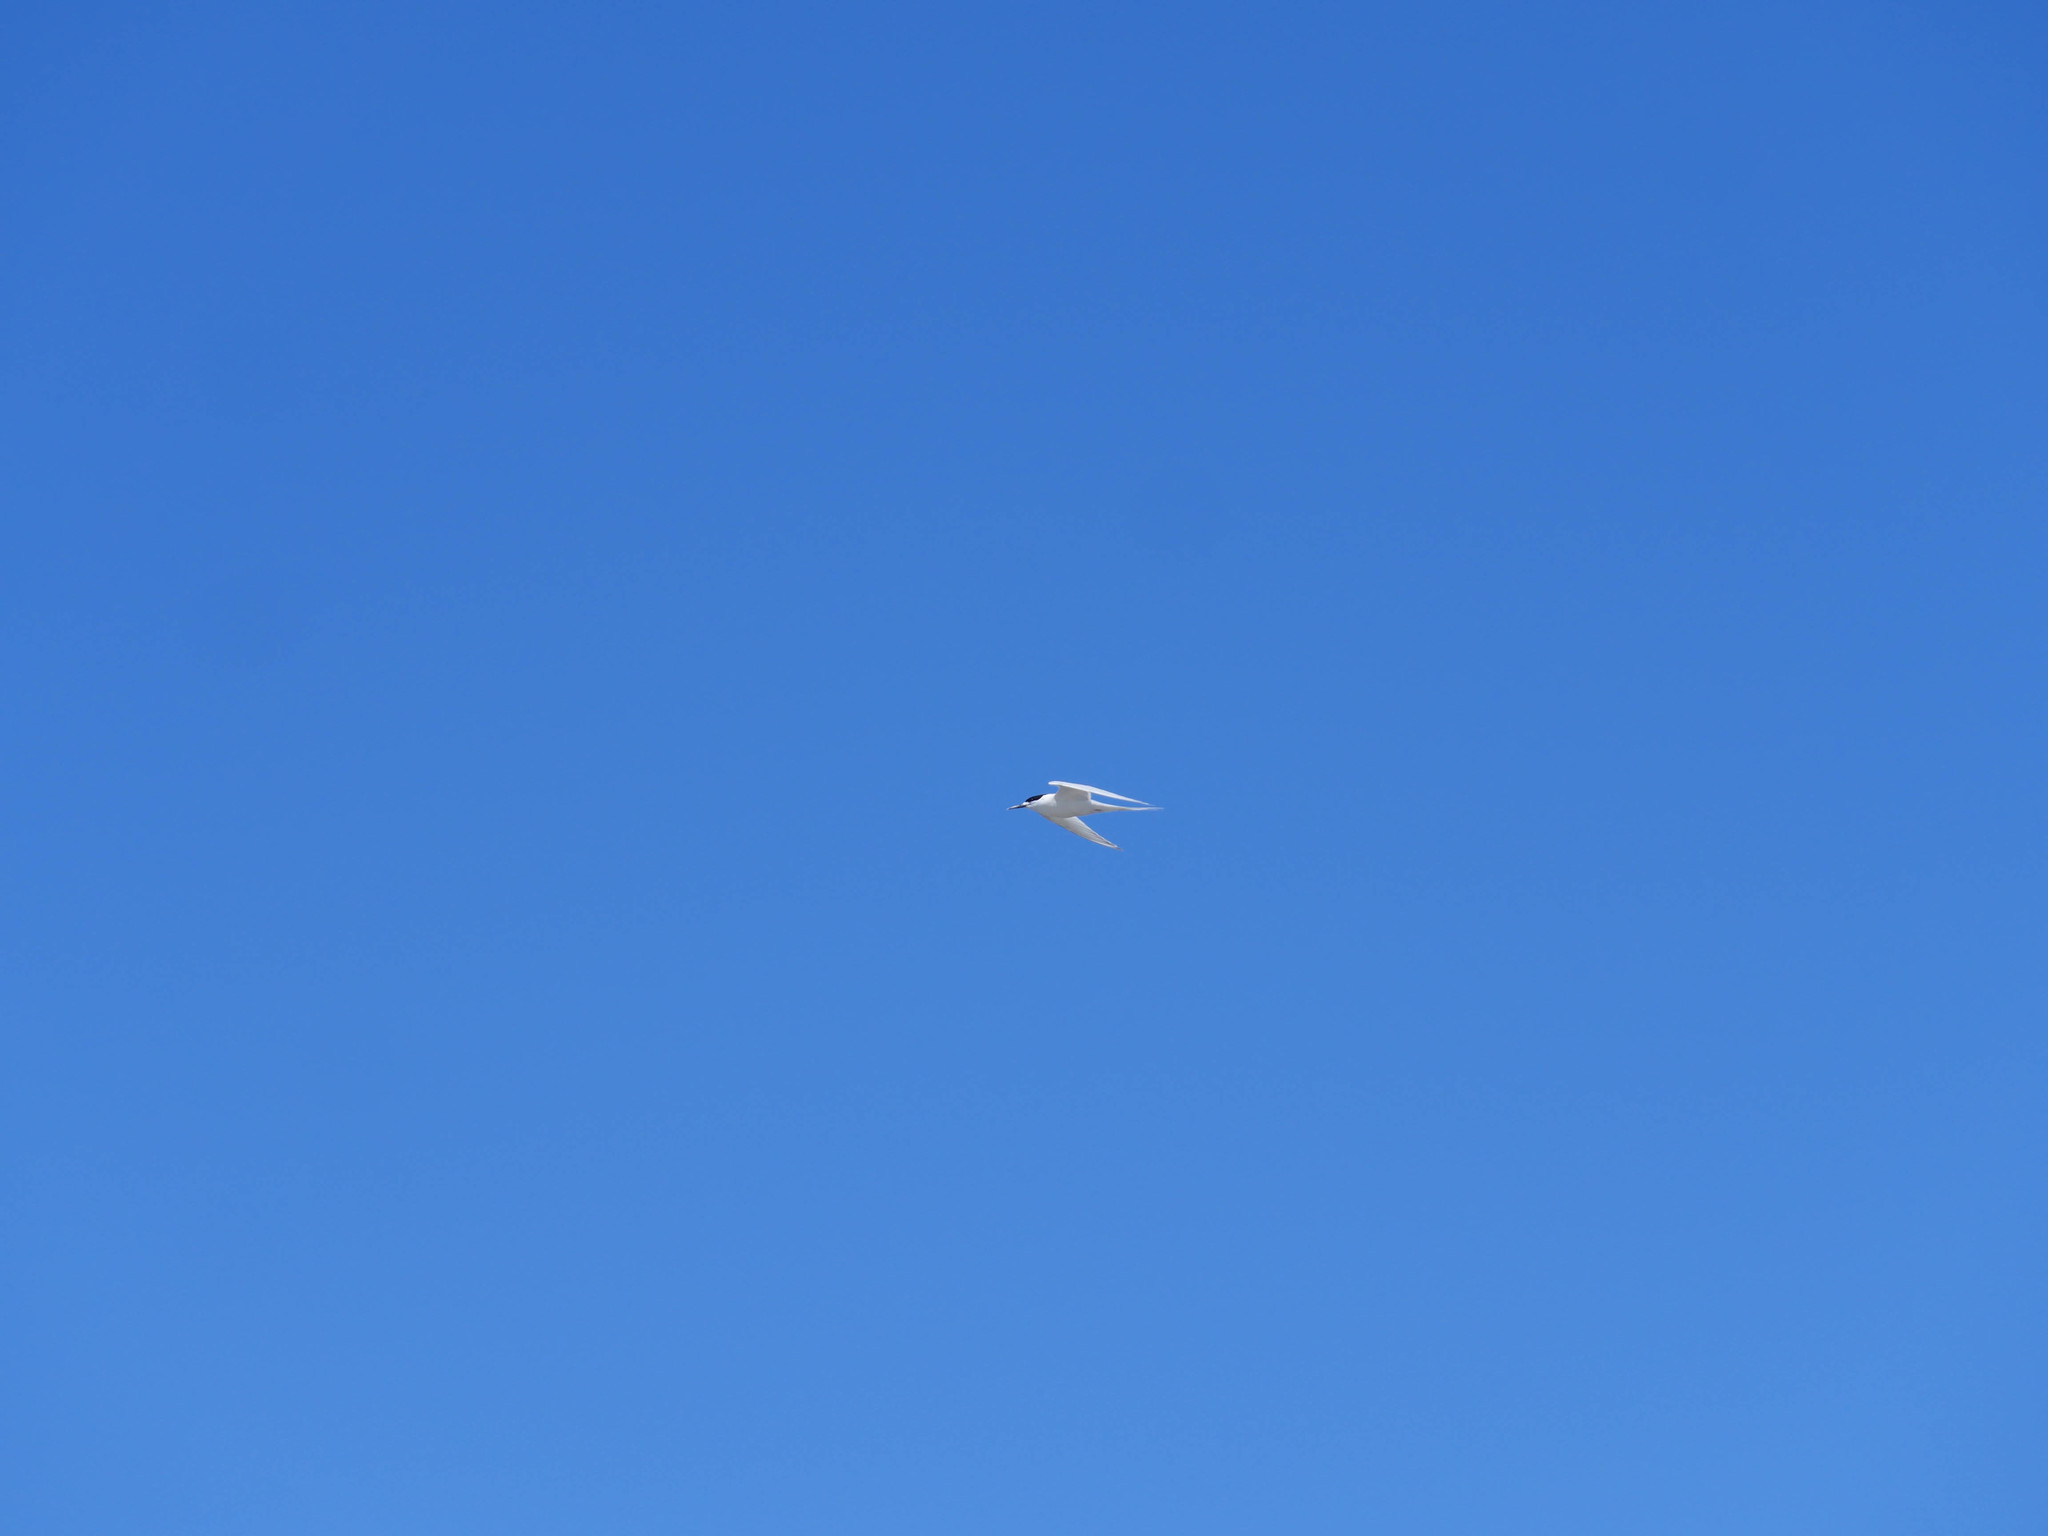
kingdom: Animalia
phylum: Chordata
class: Aves
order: Charadriiformes
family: Laridae
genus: Sterna
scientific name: Sterna striata
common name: White-fronted tern
